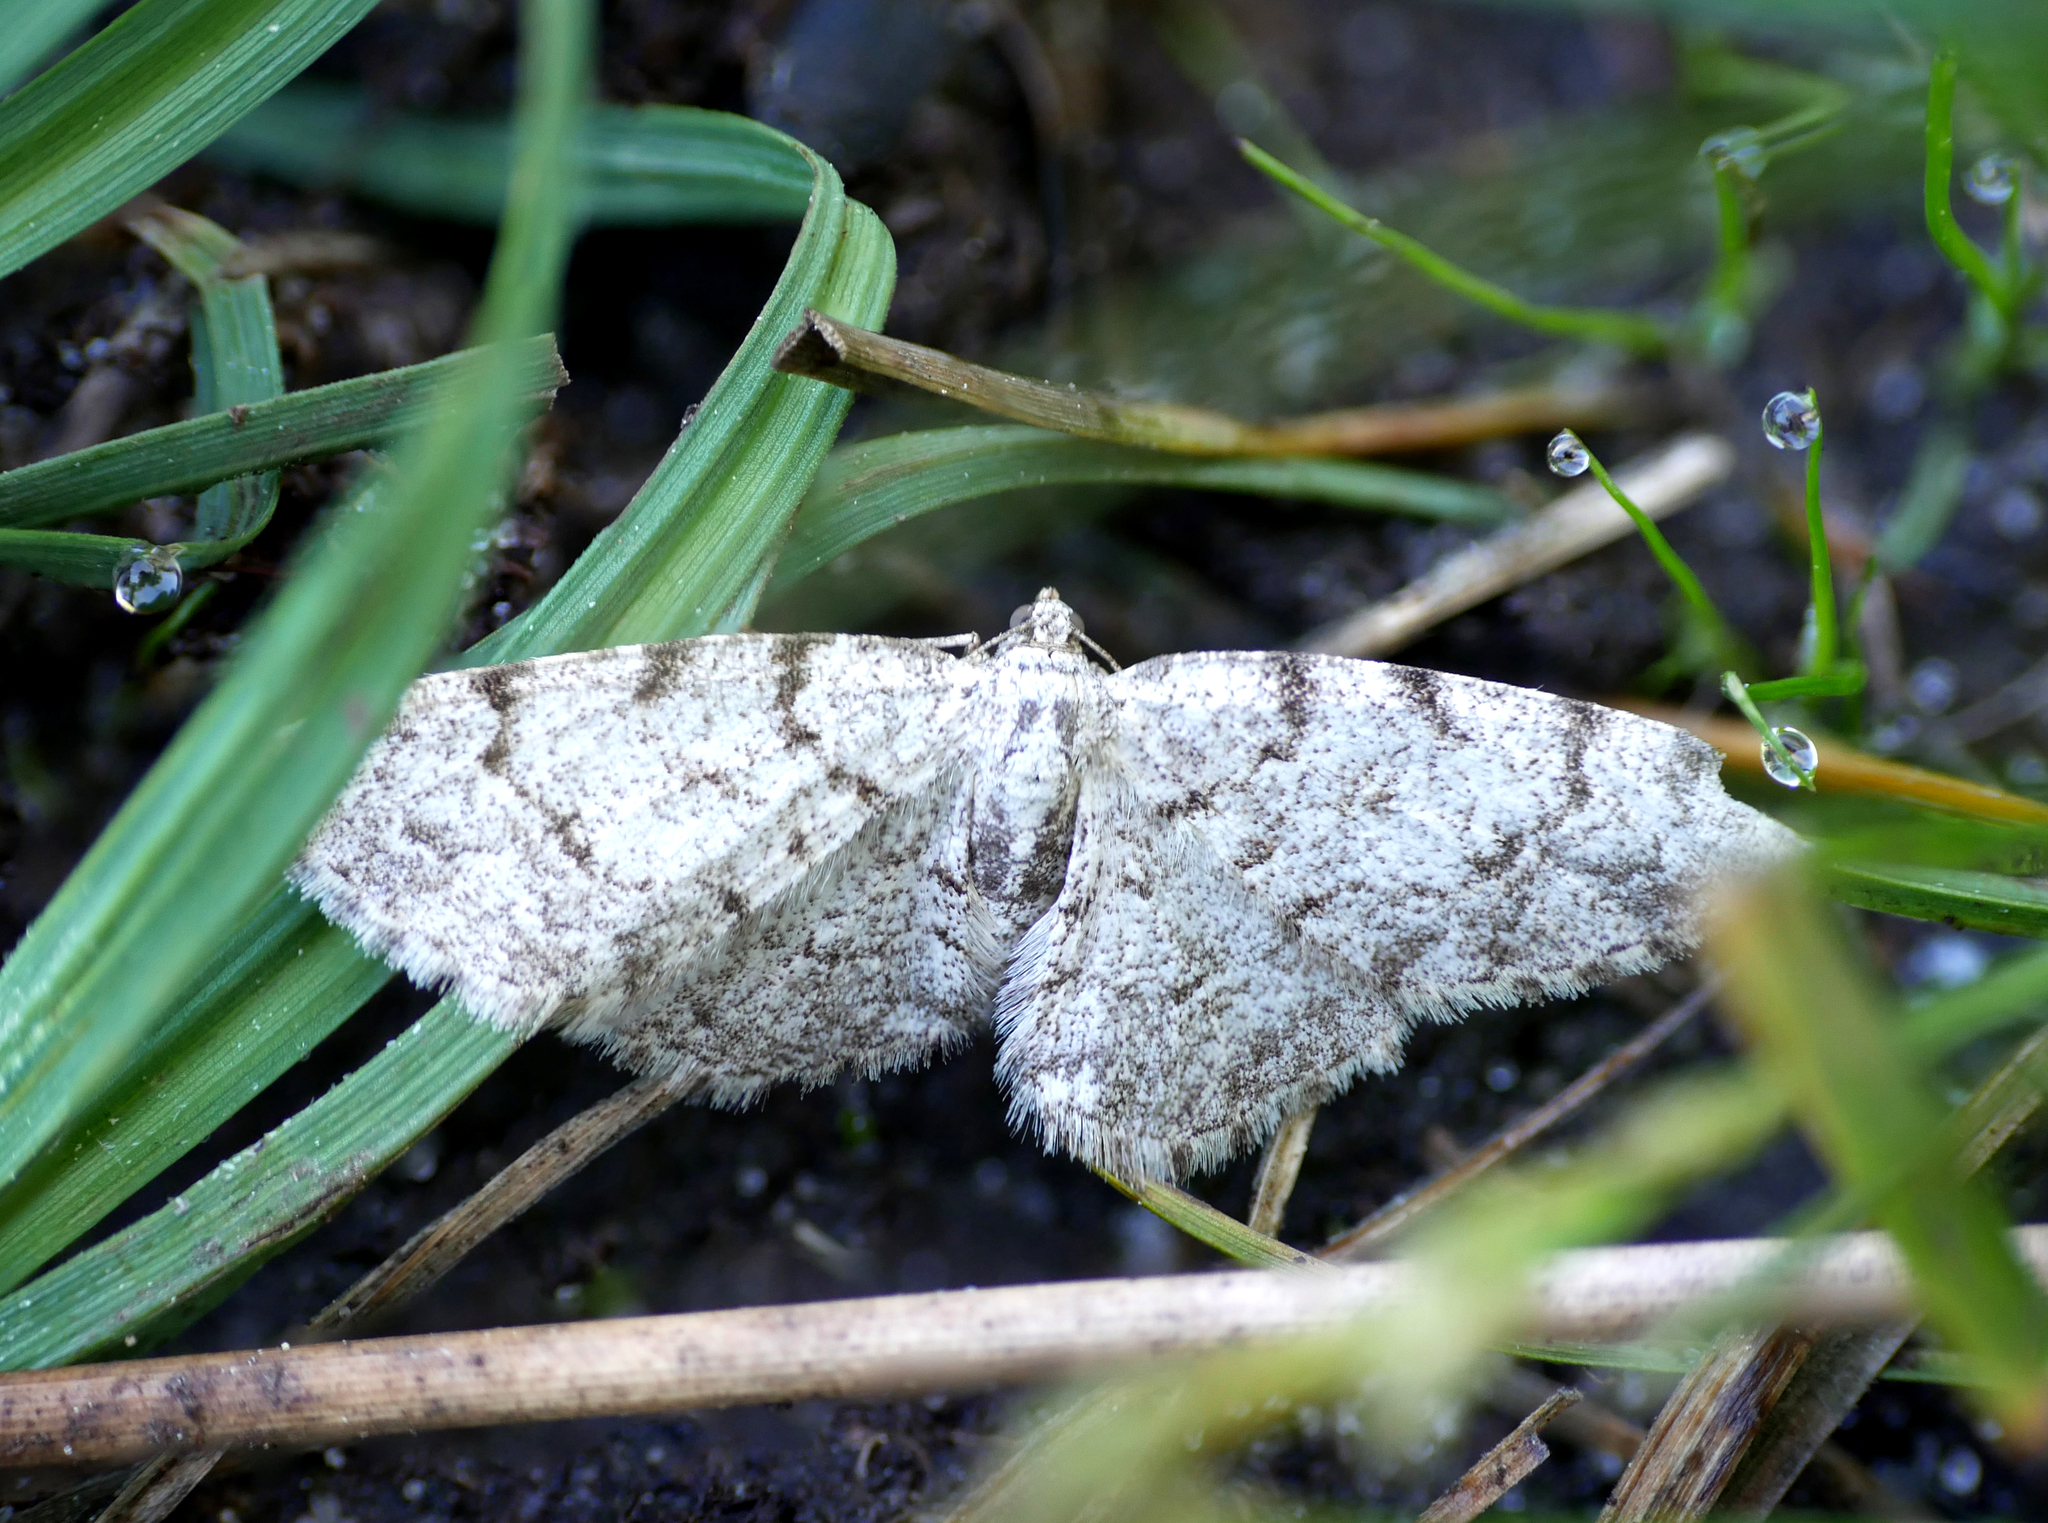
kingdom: Animalia
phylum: Arthropoda
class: Insecta
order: Lepidoptera
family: Geometridae
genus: Aethalura
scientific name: Aethalura punctulata
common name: Grey birch
